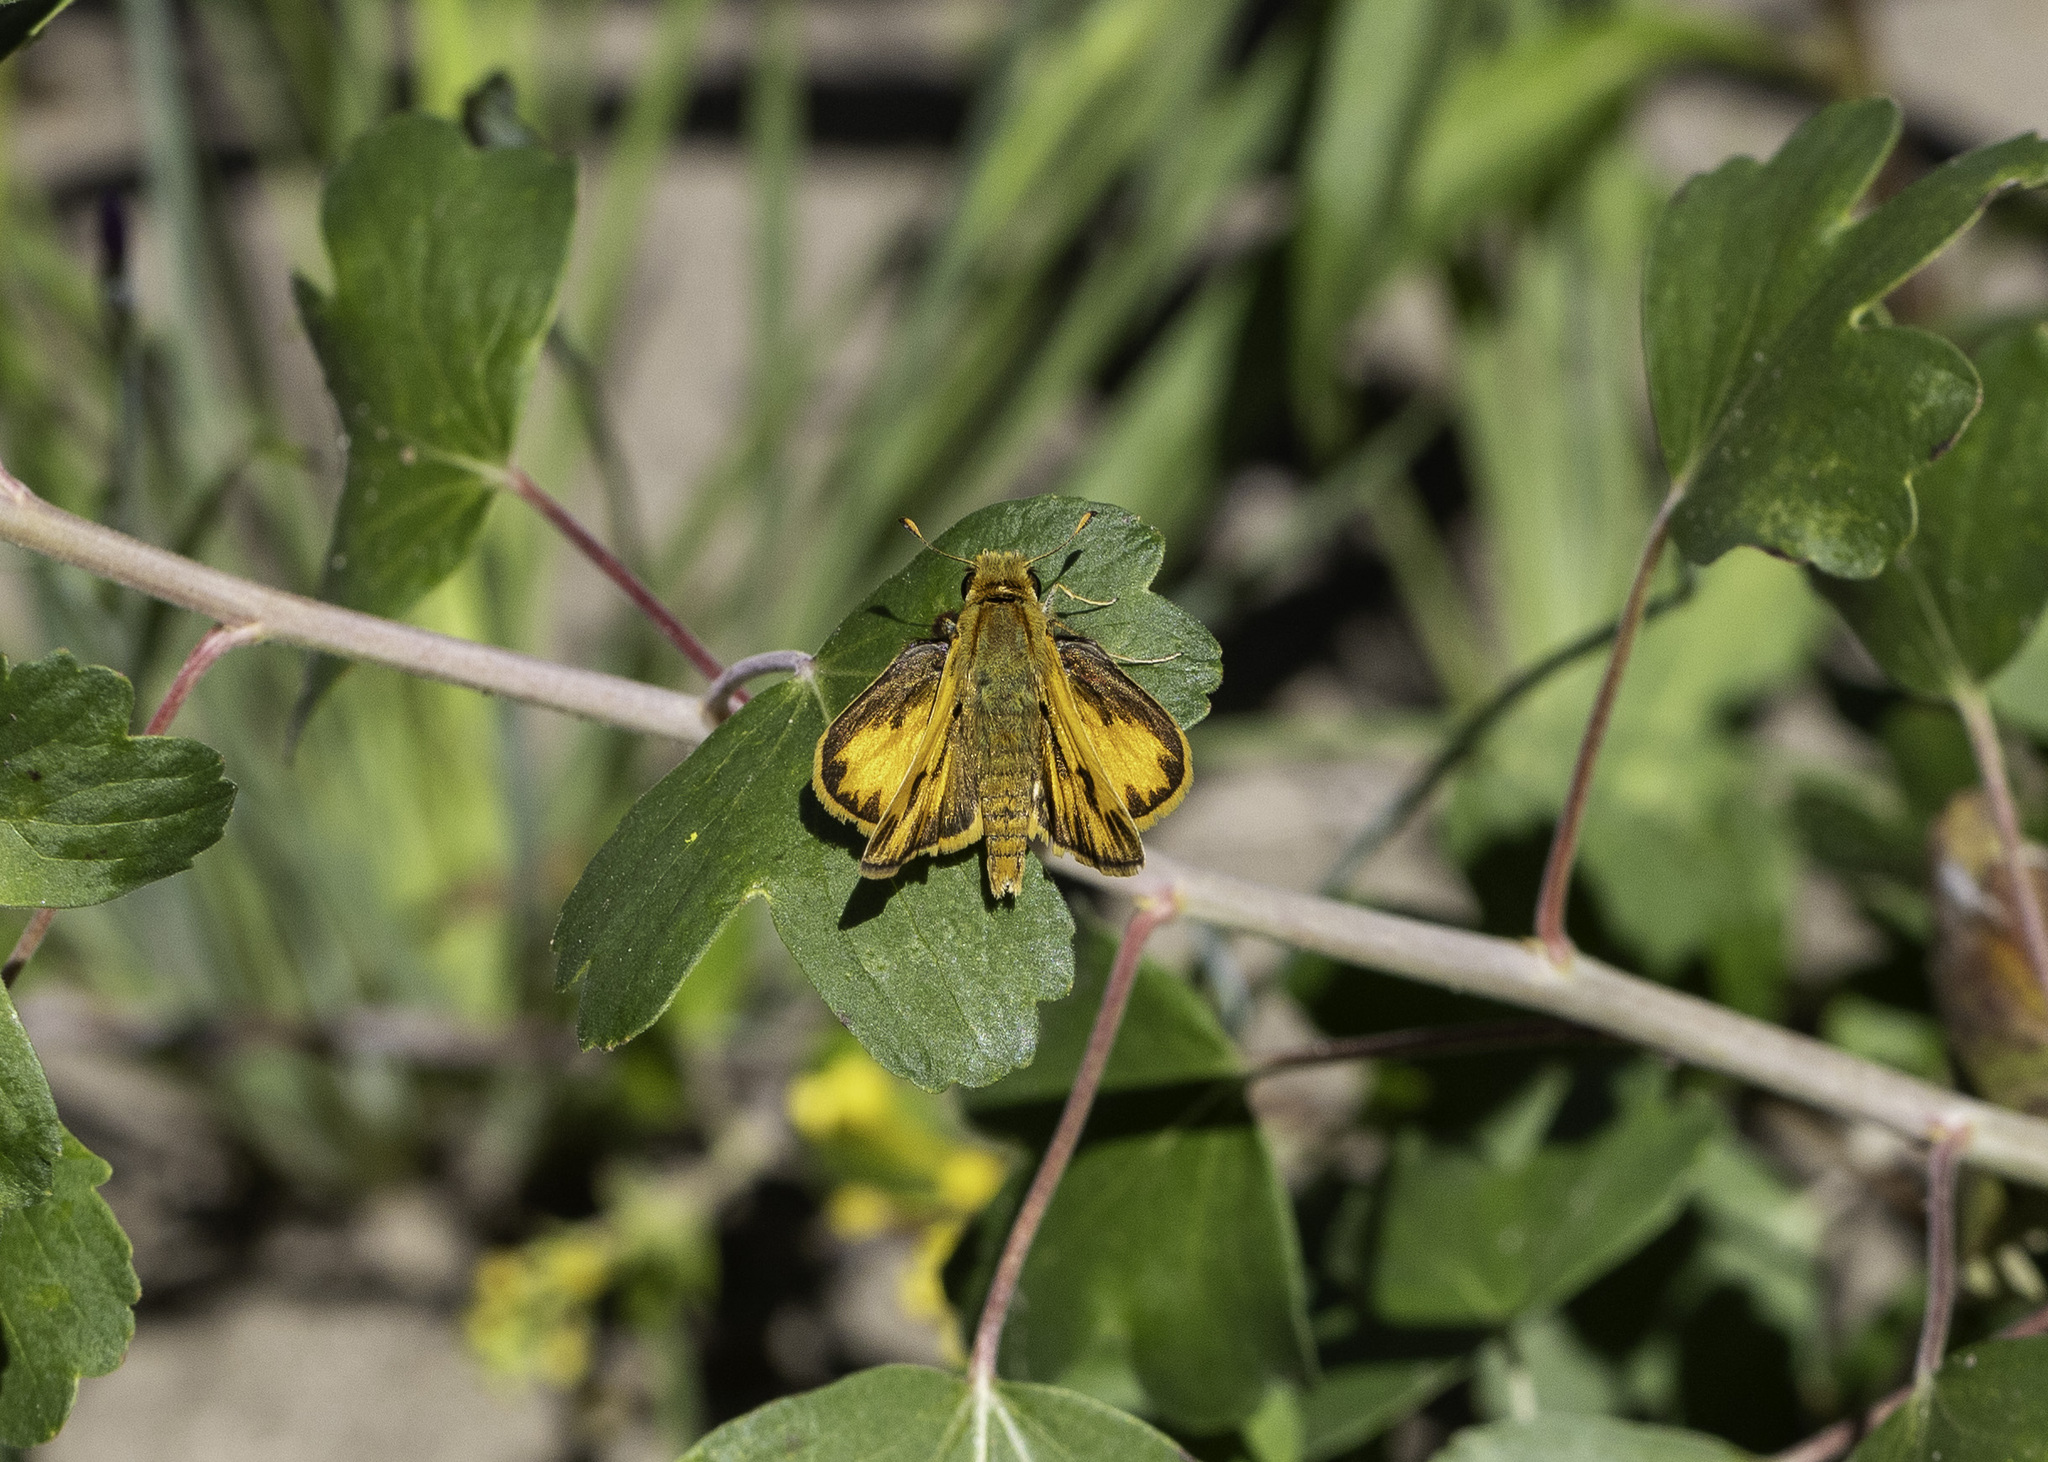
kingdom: Animalia
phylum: Arthropoda
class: Insecta
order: Lepidoptera
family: Hesperiidae
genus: Hylephila
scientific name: Hylephila phyleus
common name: Fiery skipper
